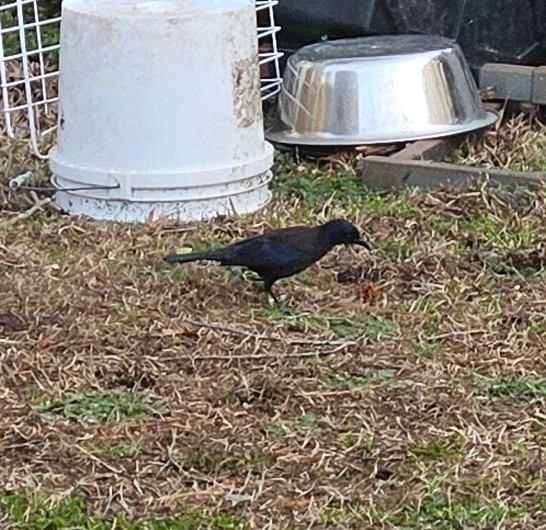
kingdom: Animalia
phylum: Chordata
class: Aves
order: Passeriformes
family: Icteridae
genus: Quiscalus
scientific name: Quiscalus quiscula
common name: Common grackle
